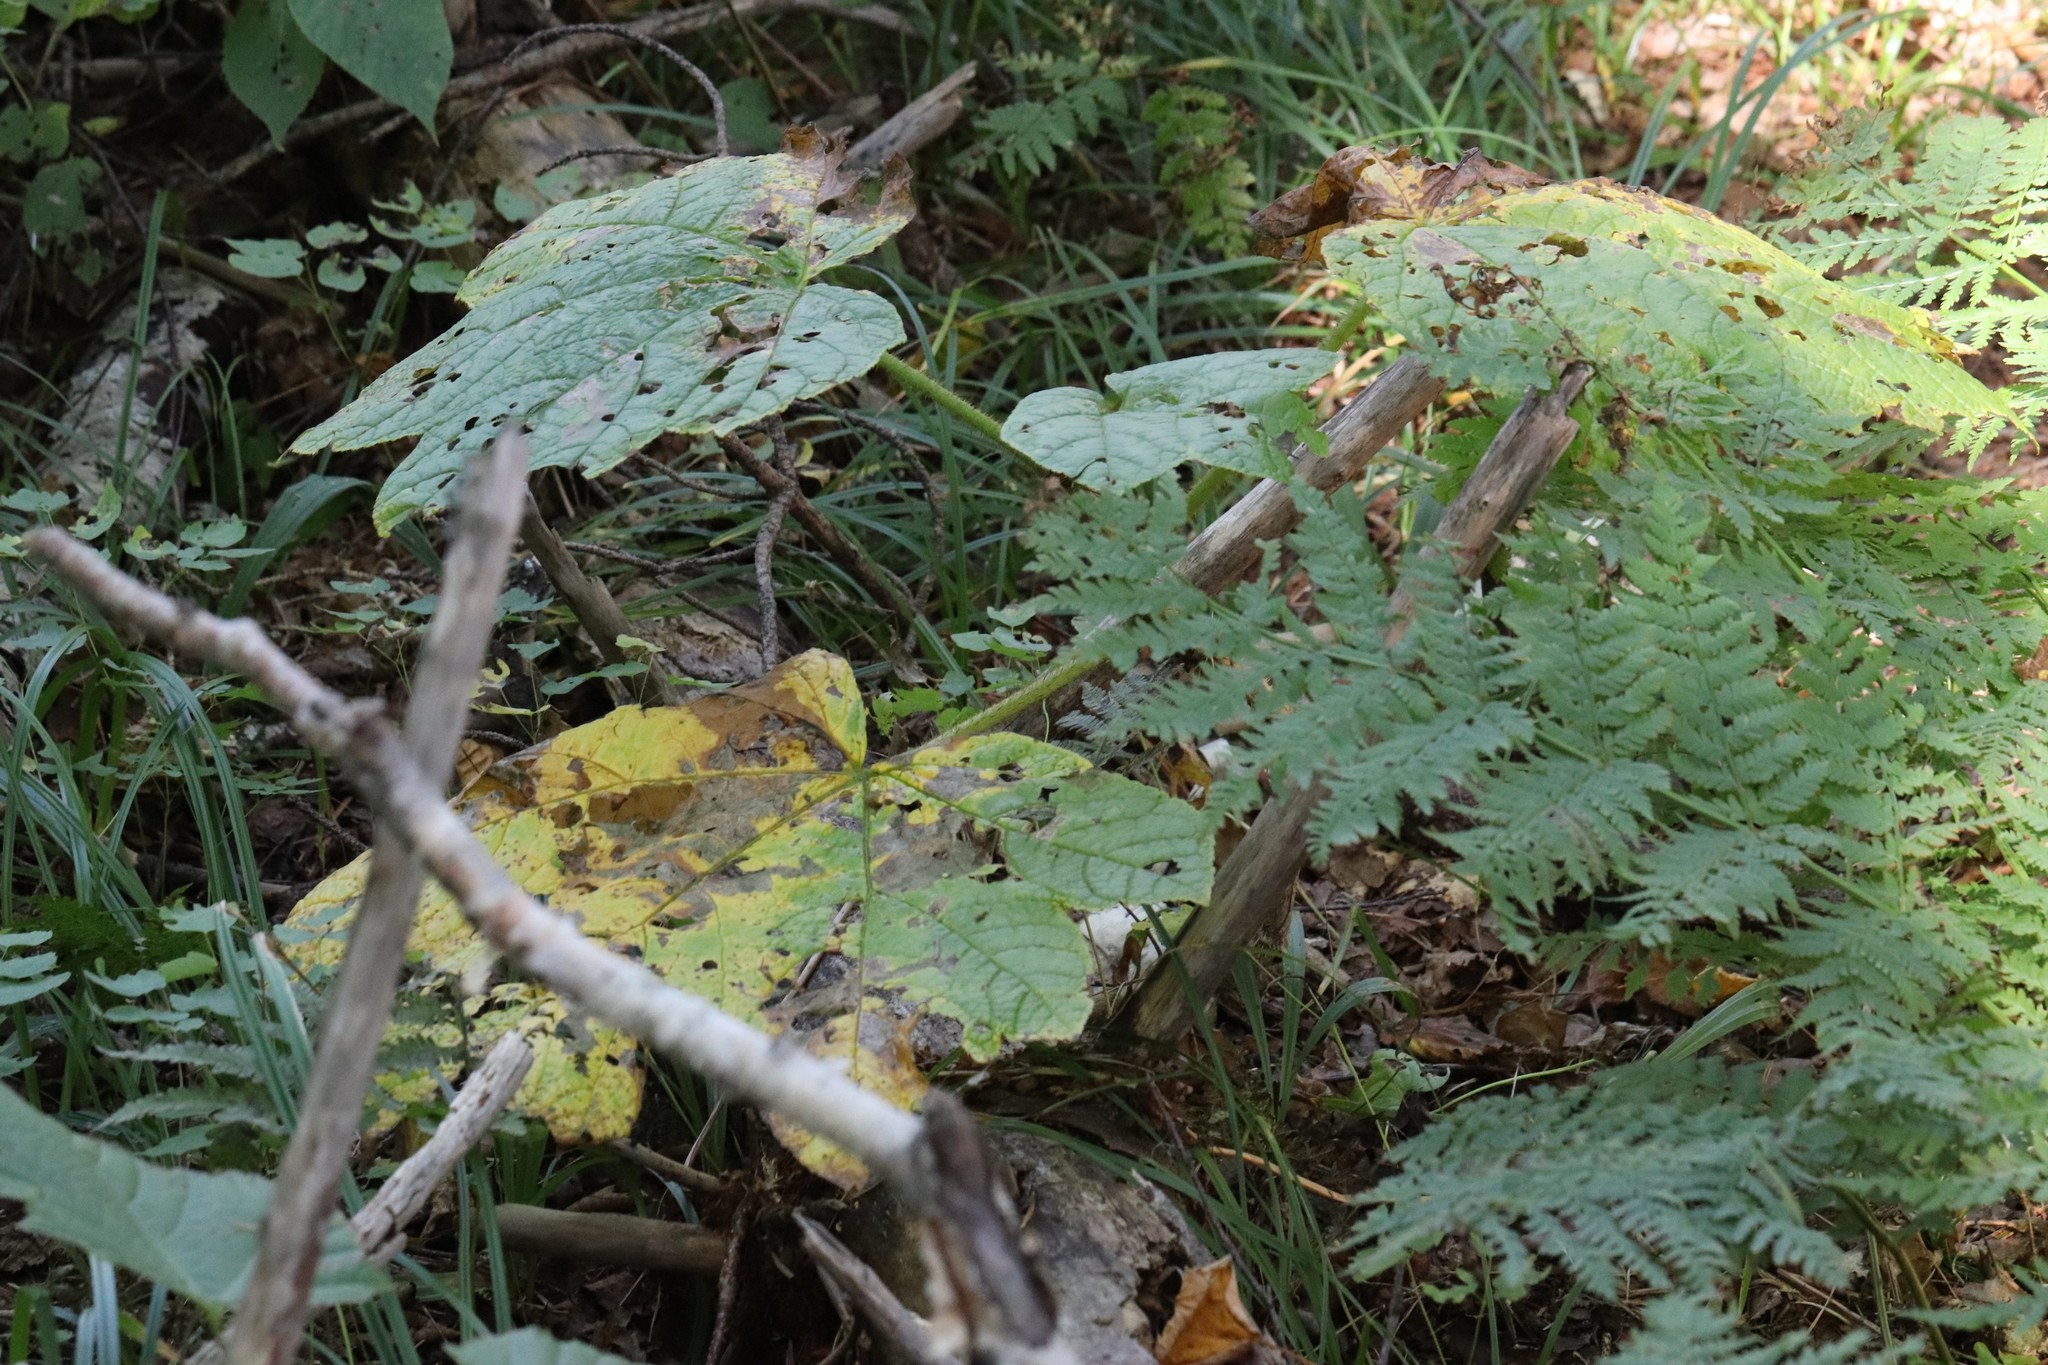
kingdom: Plantae
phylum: Tracheophyta
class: Magnoliopsida
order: Apiales
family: Araliaceae
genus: Oplopanax
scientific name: Oplopanax elatus
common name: Japanese devil's-club
